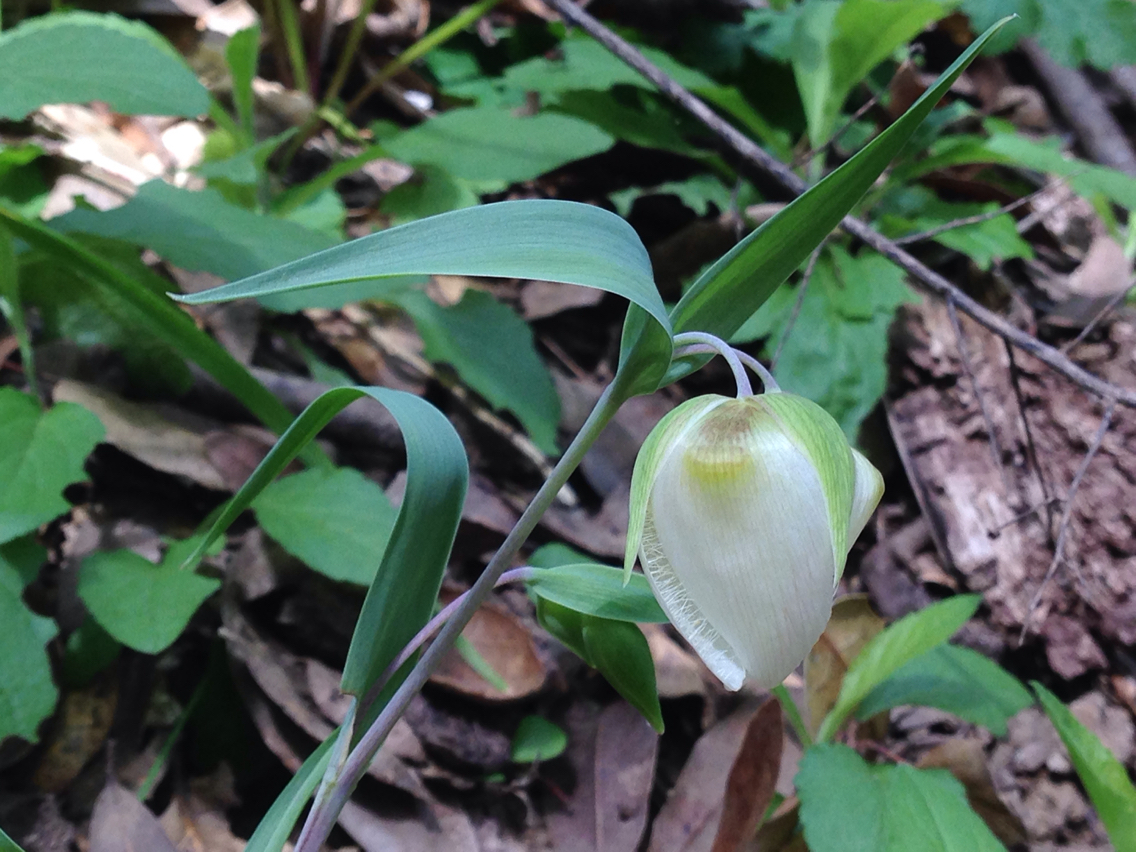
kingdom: Plantae
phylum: Tracheophyta
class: Liliopsida
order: Liliales
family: Liliaceae
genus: Calochortus
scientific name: Calochortus albus
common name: Fairy-lantern
